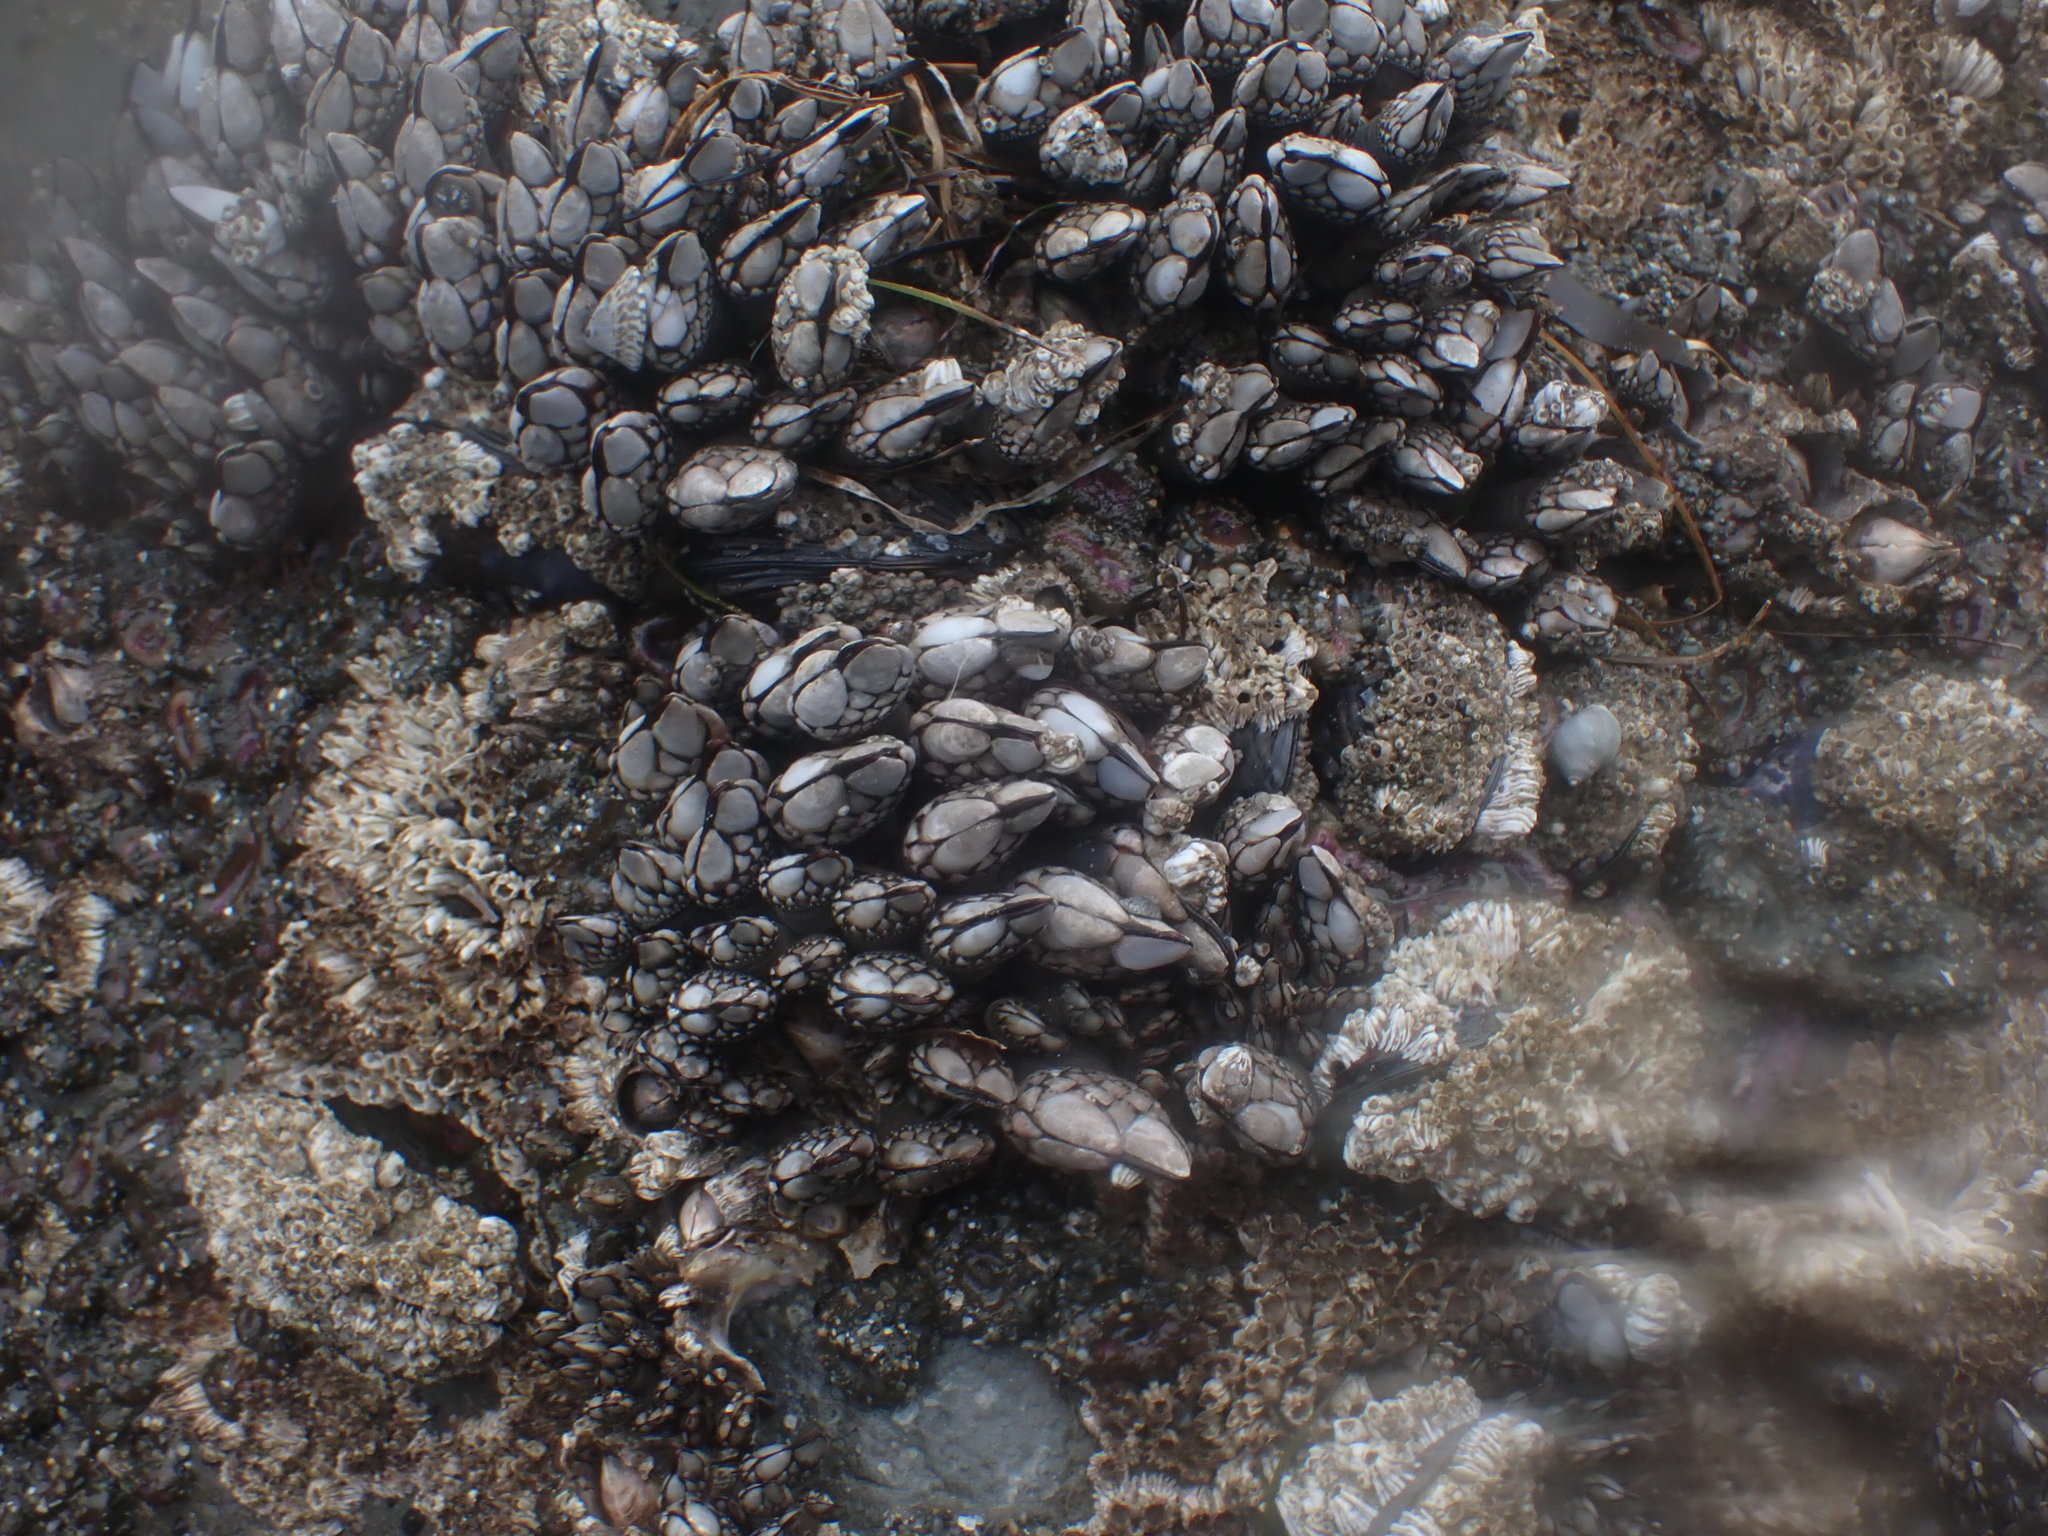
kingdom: Animalia
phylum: Arthropoda
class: Maxillopoda
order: Pedunculata
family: Pollicipedidae
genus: Pollicipes
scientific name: Pollicipes polymerus
